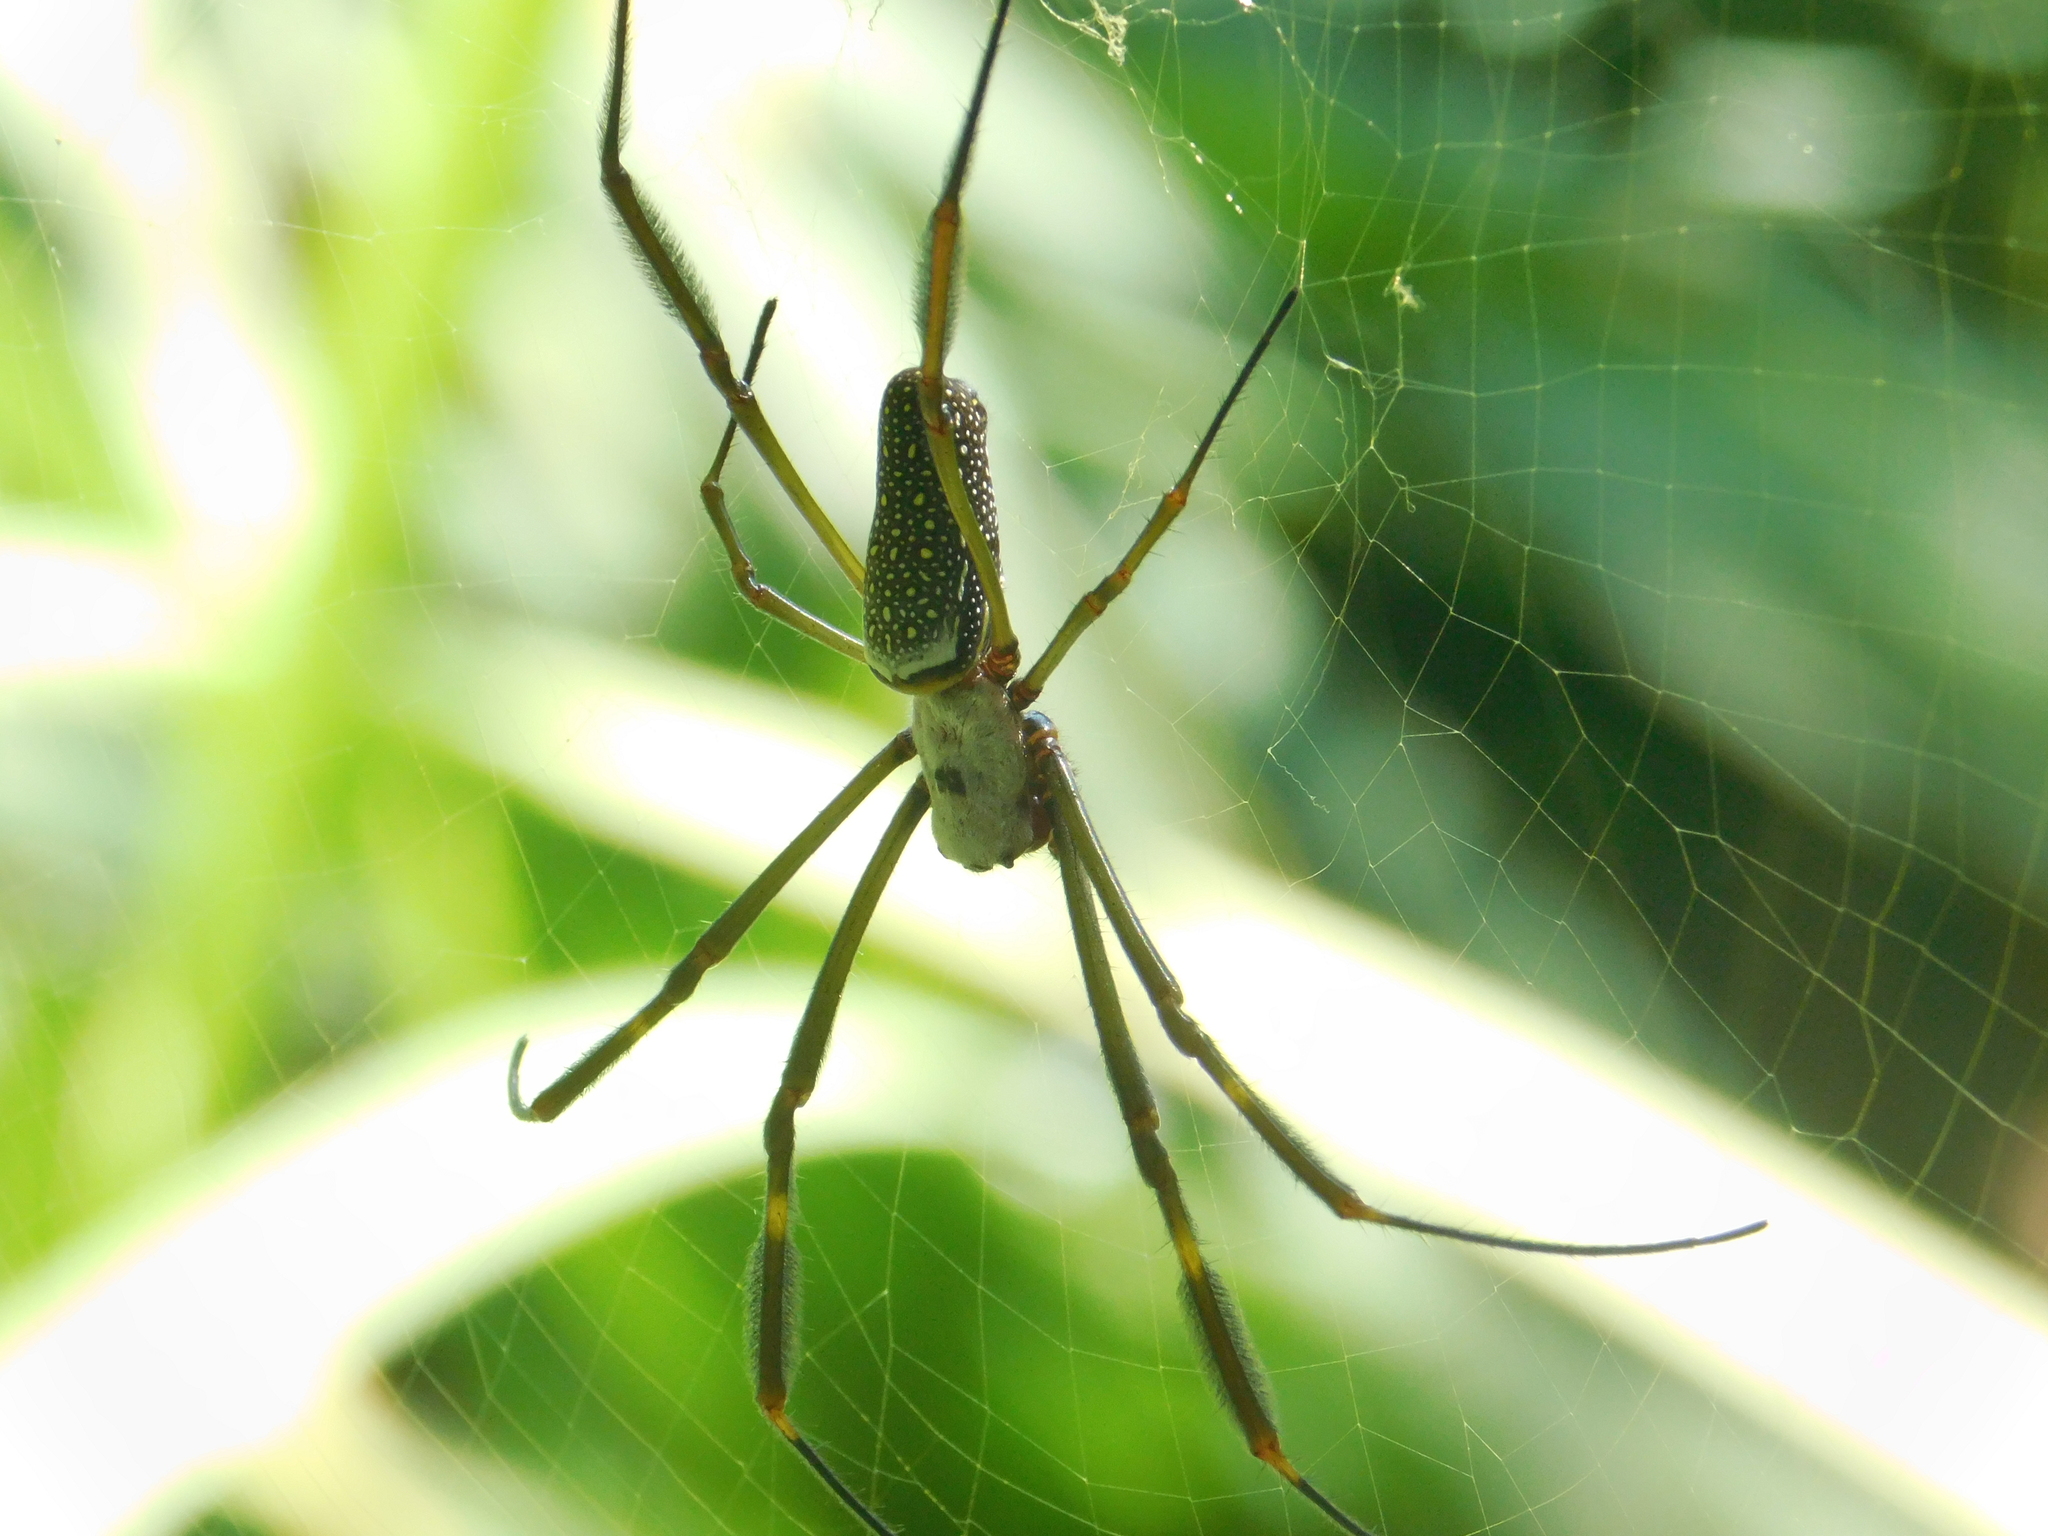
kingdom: Animalia
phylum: Arthropoda
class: Arachnida
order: Araneae
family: Araneidae
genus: Trichonephila
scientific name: Trichonephila clavipes
